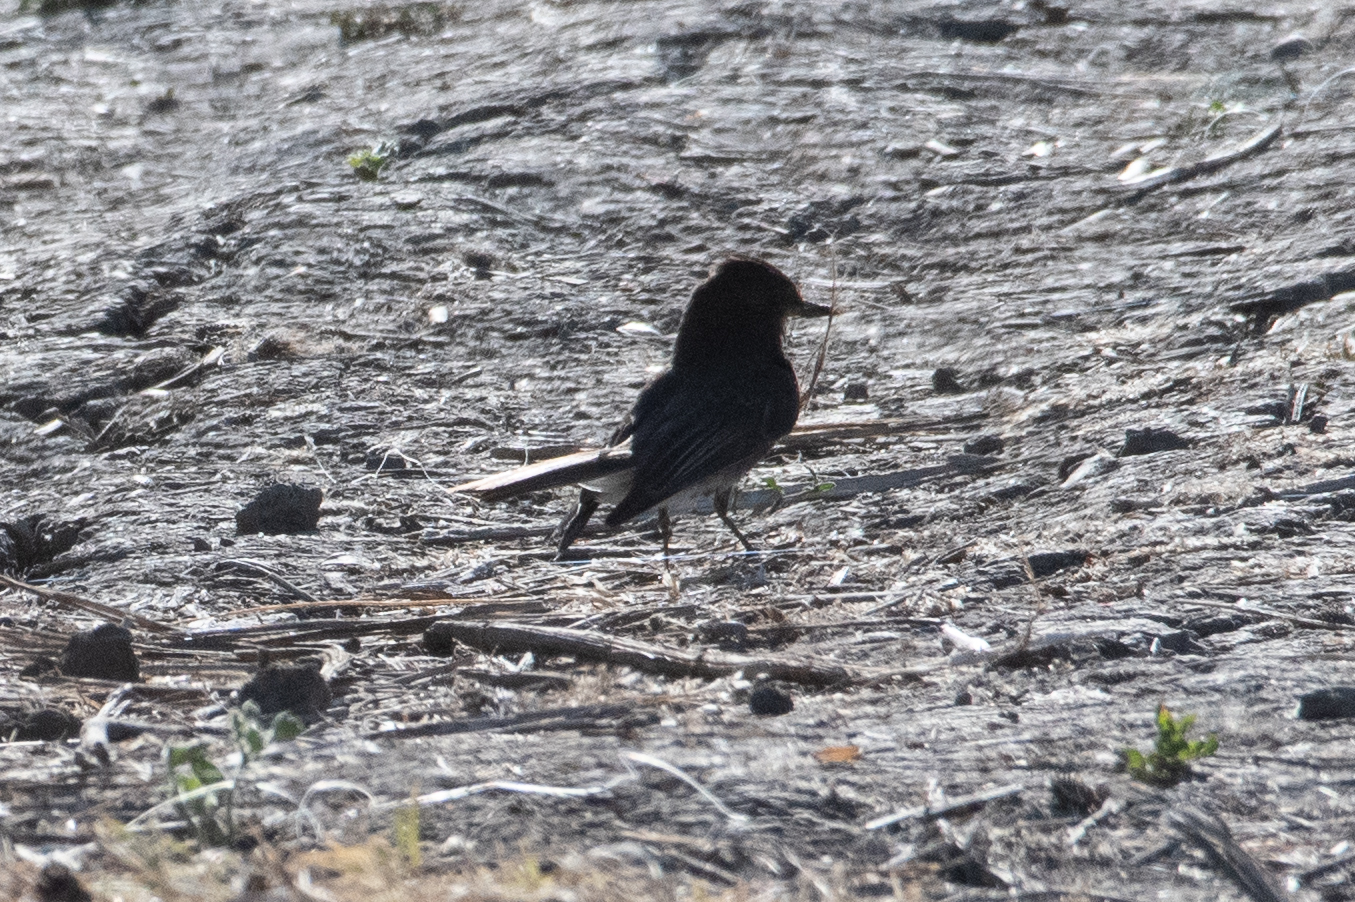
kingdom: Animalia
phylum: Chordata
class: Aves
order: Passeriformes
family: Tyrannidae
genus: Sayornis
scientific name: Sayornis nigricans
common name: Black phoebe
